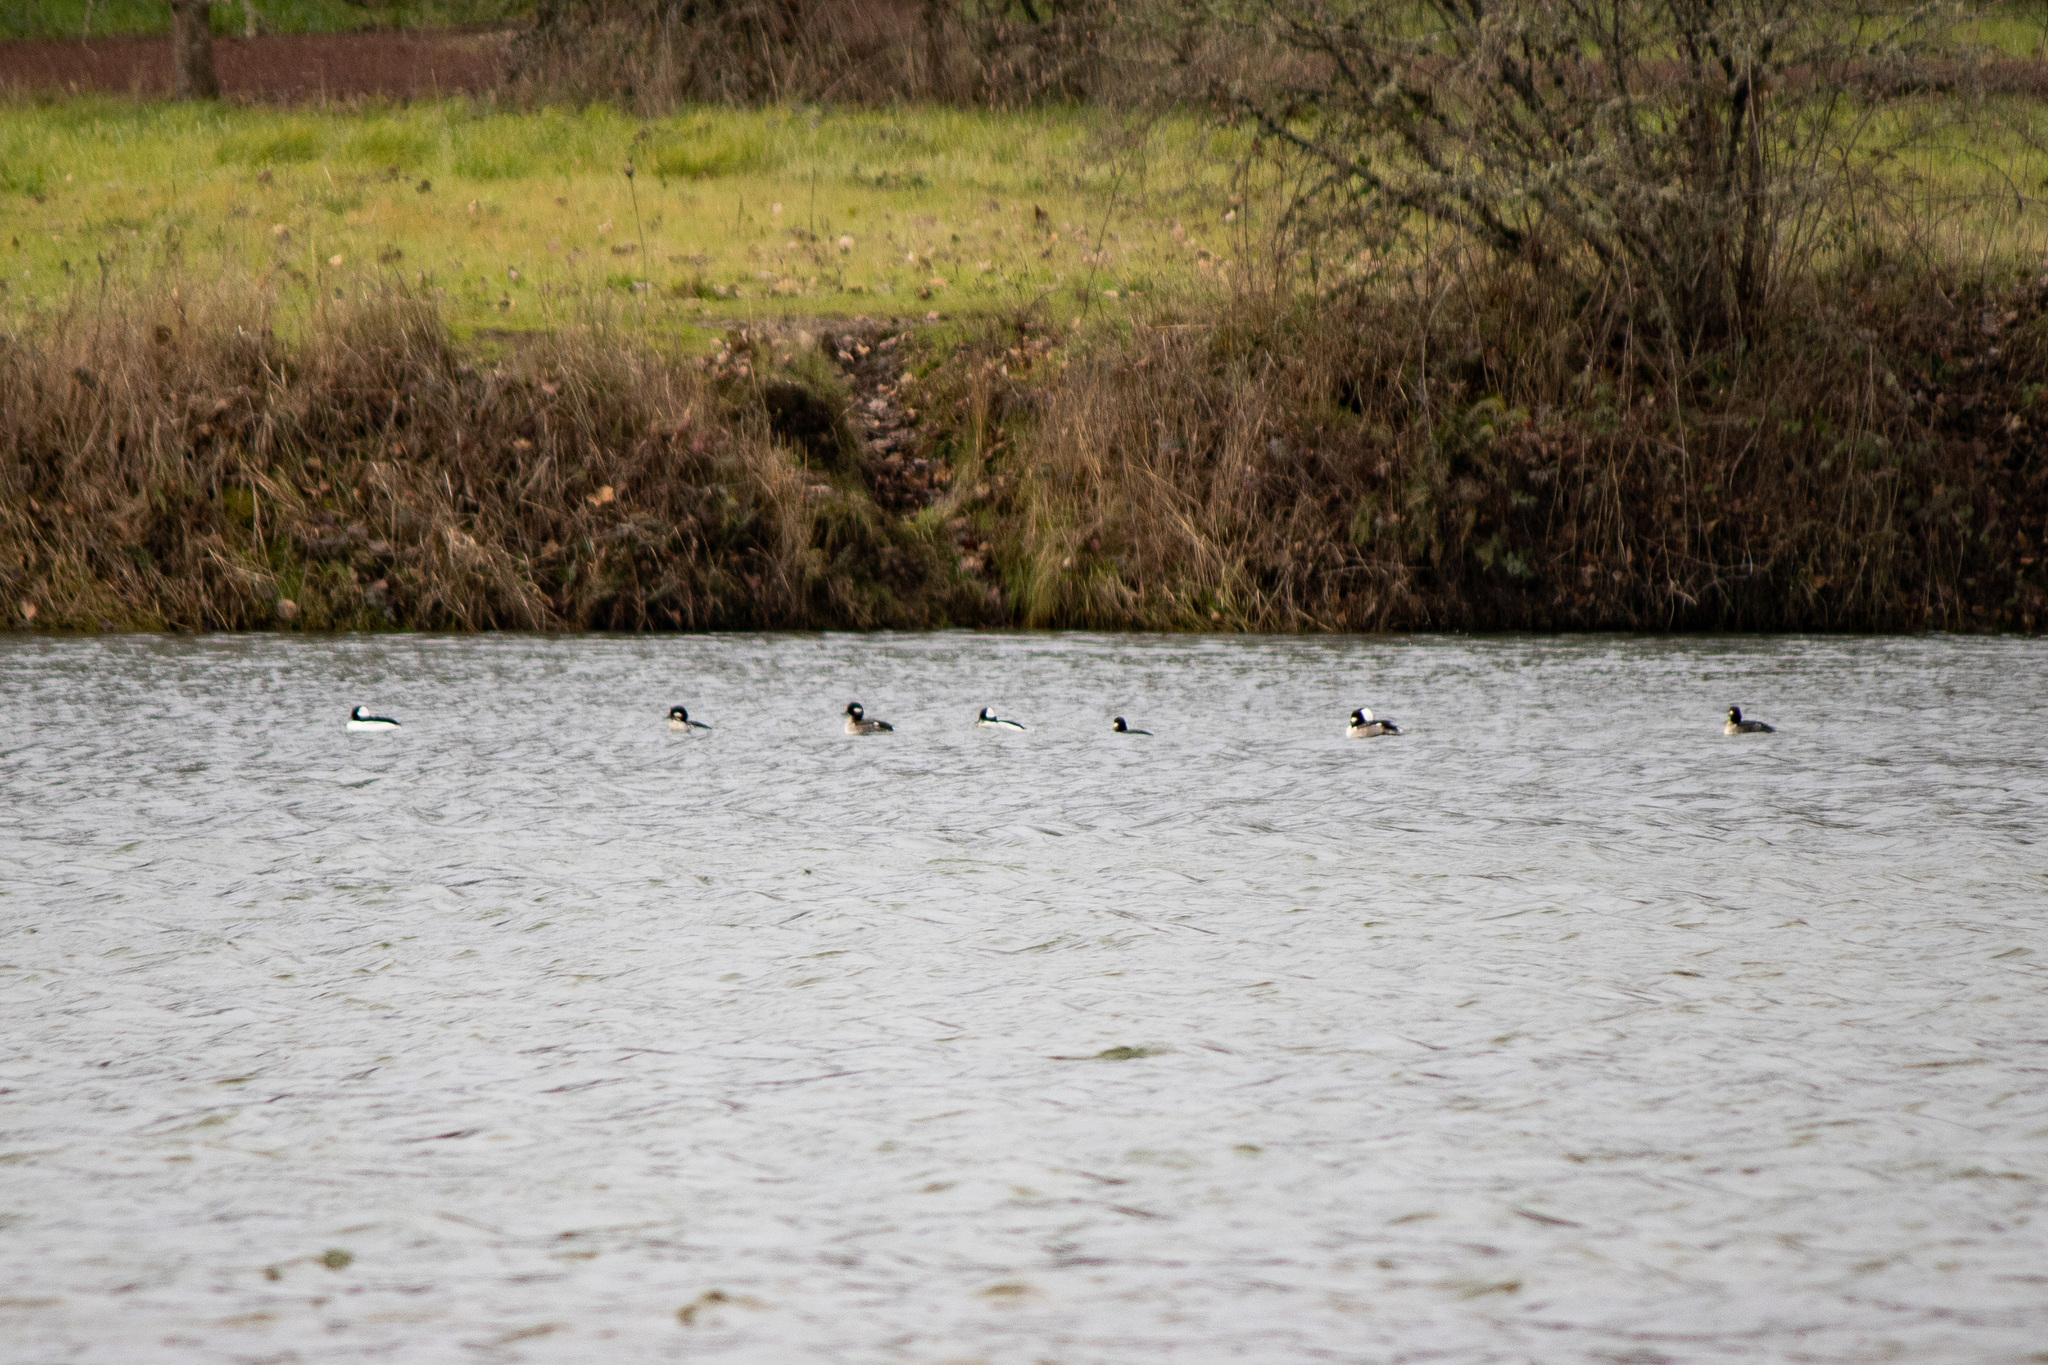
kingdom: Animalia
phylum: Chordata
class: Aves
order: Anseriformes
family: Anatidae
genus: Bucephala
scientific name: Bucephala albeola
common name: Bufflehead
